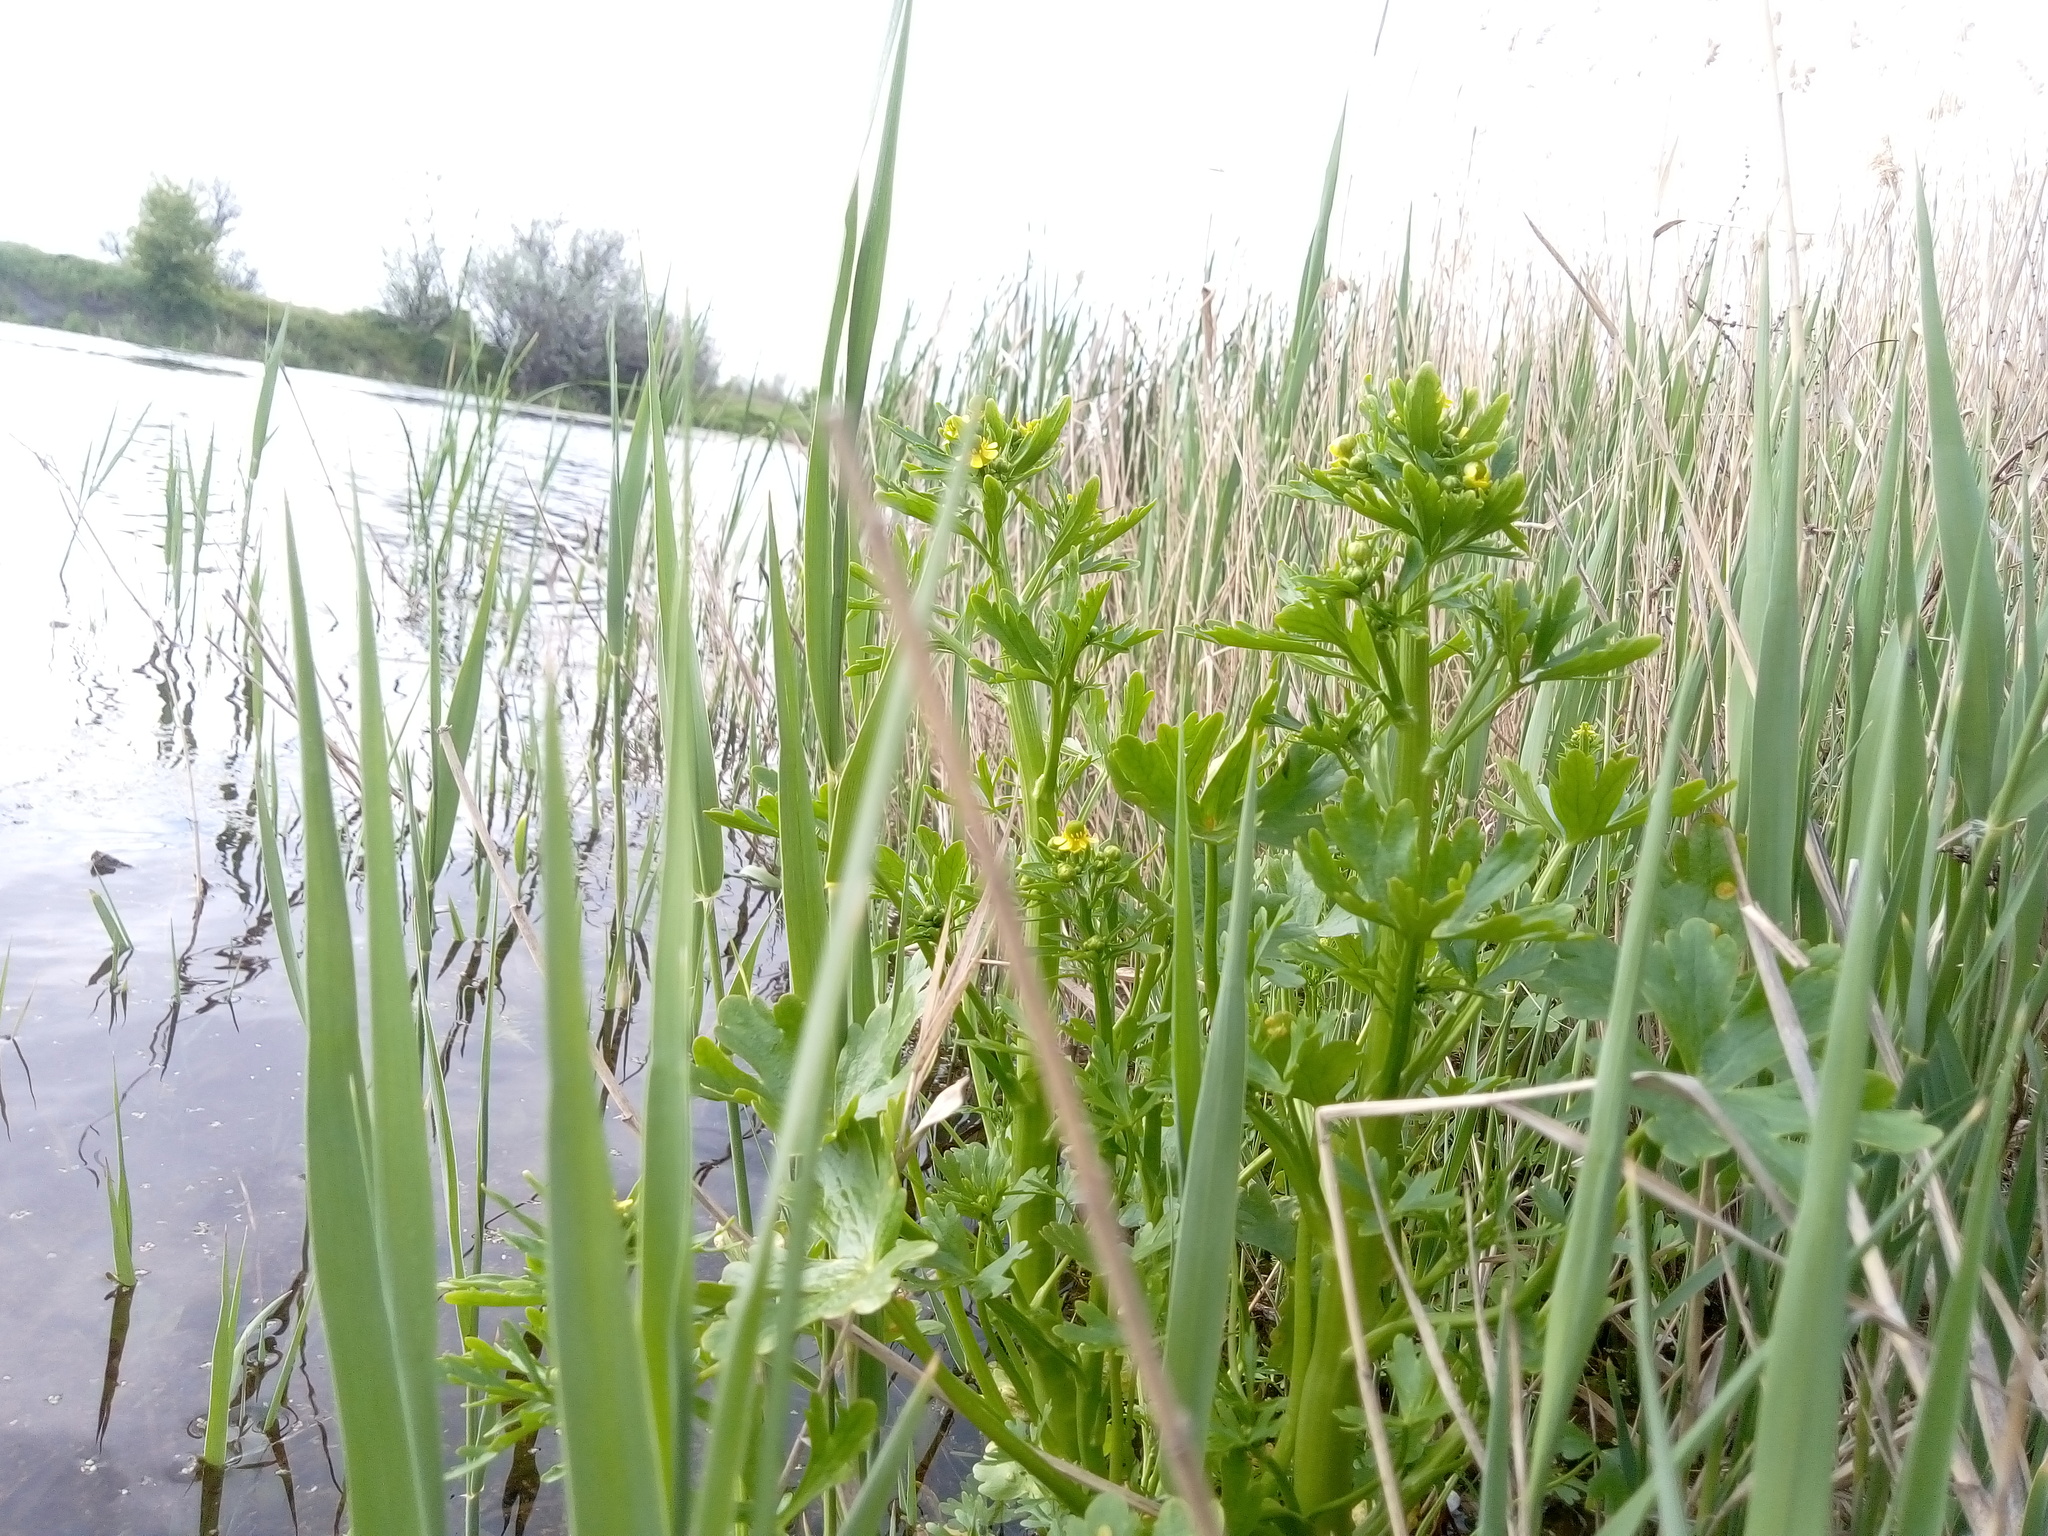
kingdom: Plantae
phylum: Tracheophyta
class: Magnoliopsida
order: Ranunculales
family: Ranunculaceae
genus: Ranunculus
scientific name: Ranunculus sceleratus
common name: Celery-leaved buttercup
